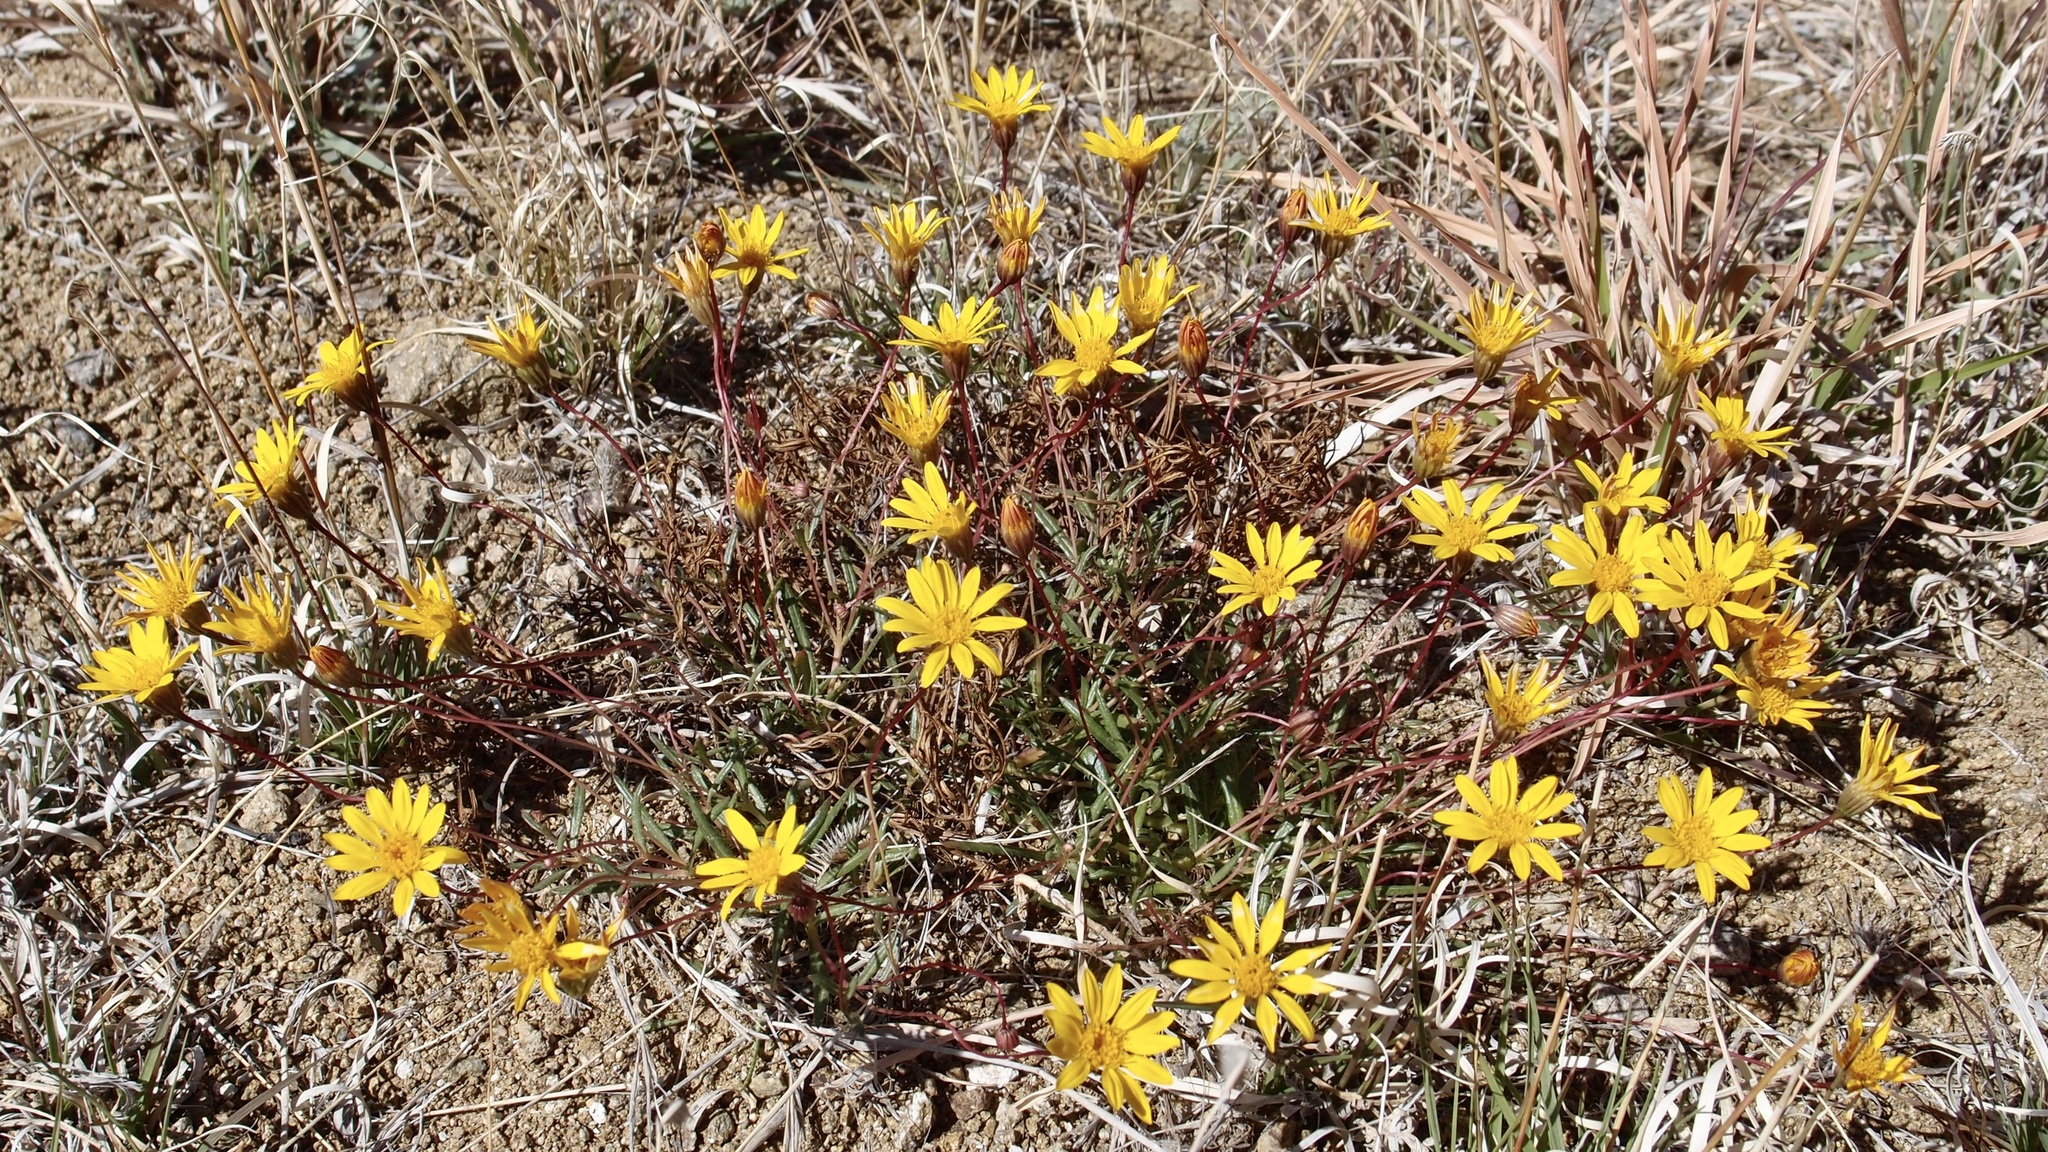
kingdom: Plantae
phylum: Tracheophyta
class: Magnoliopsida
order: Asterales
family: Asteraceae
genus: Pectis
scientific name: Pectis longipes
